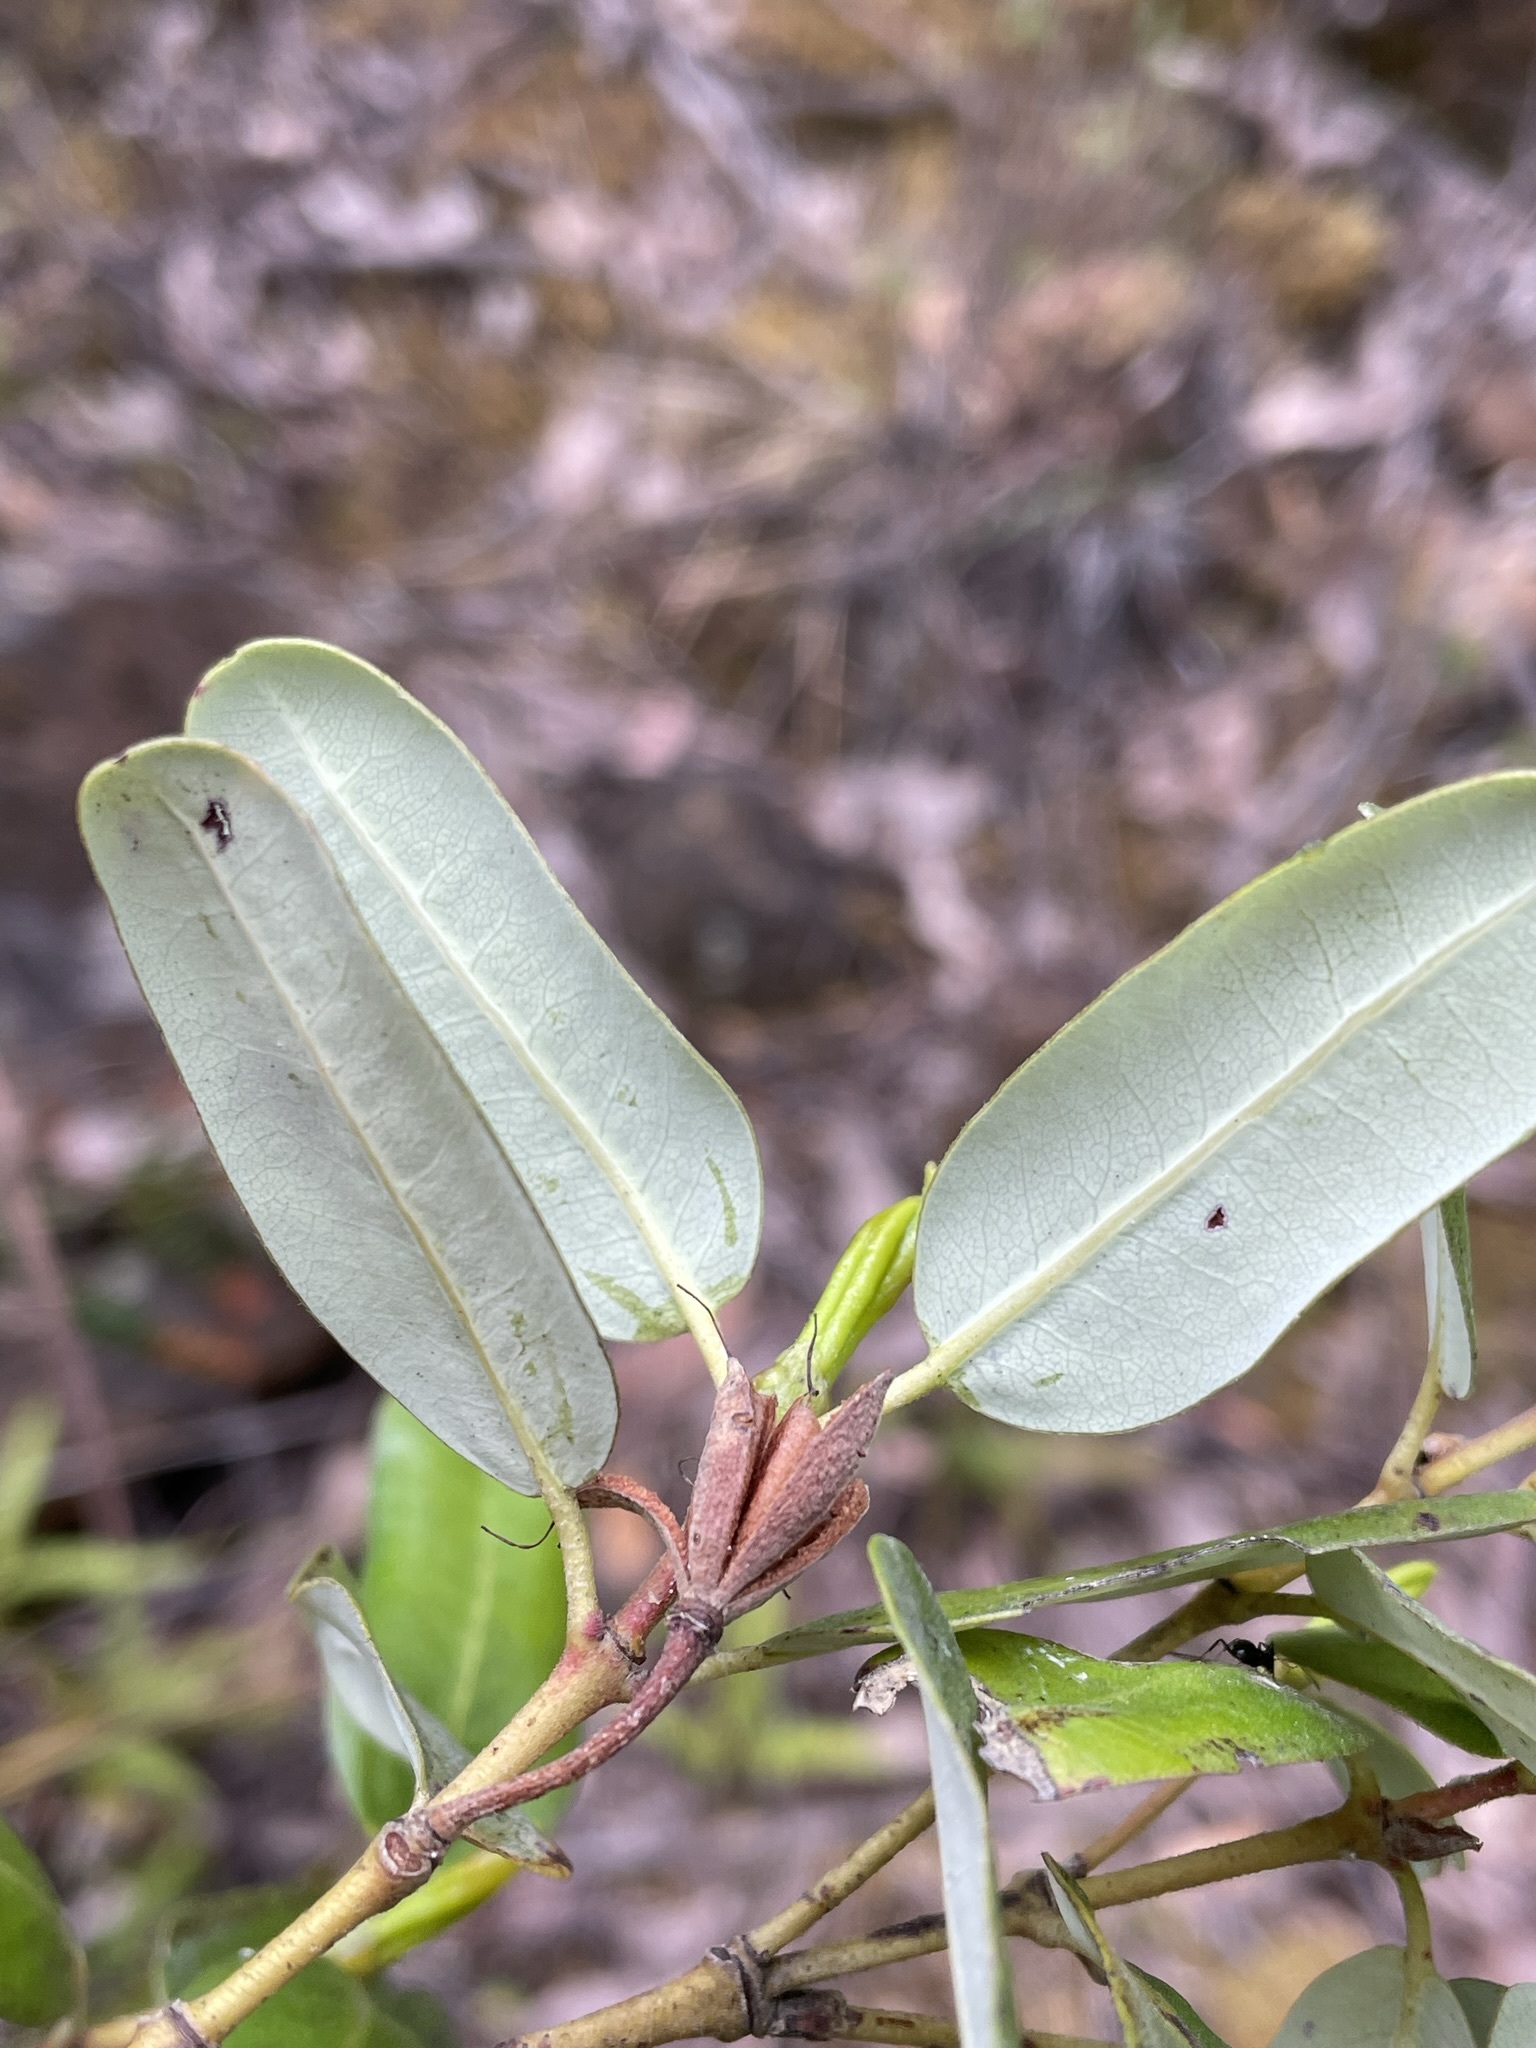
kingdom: Plantae
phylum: Tracheophyta
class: Magnoliopsida
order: Oxalidales
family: Cunoniaceae
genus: Eucryphia
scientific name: Eucryphia lucida
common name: Leatherwood
